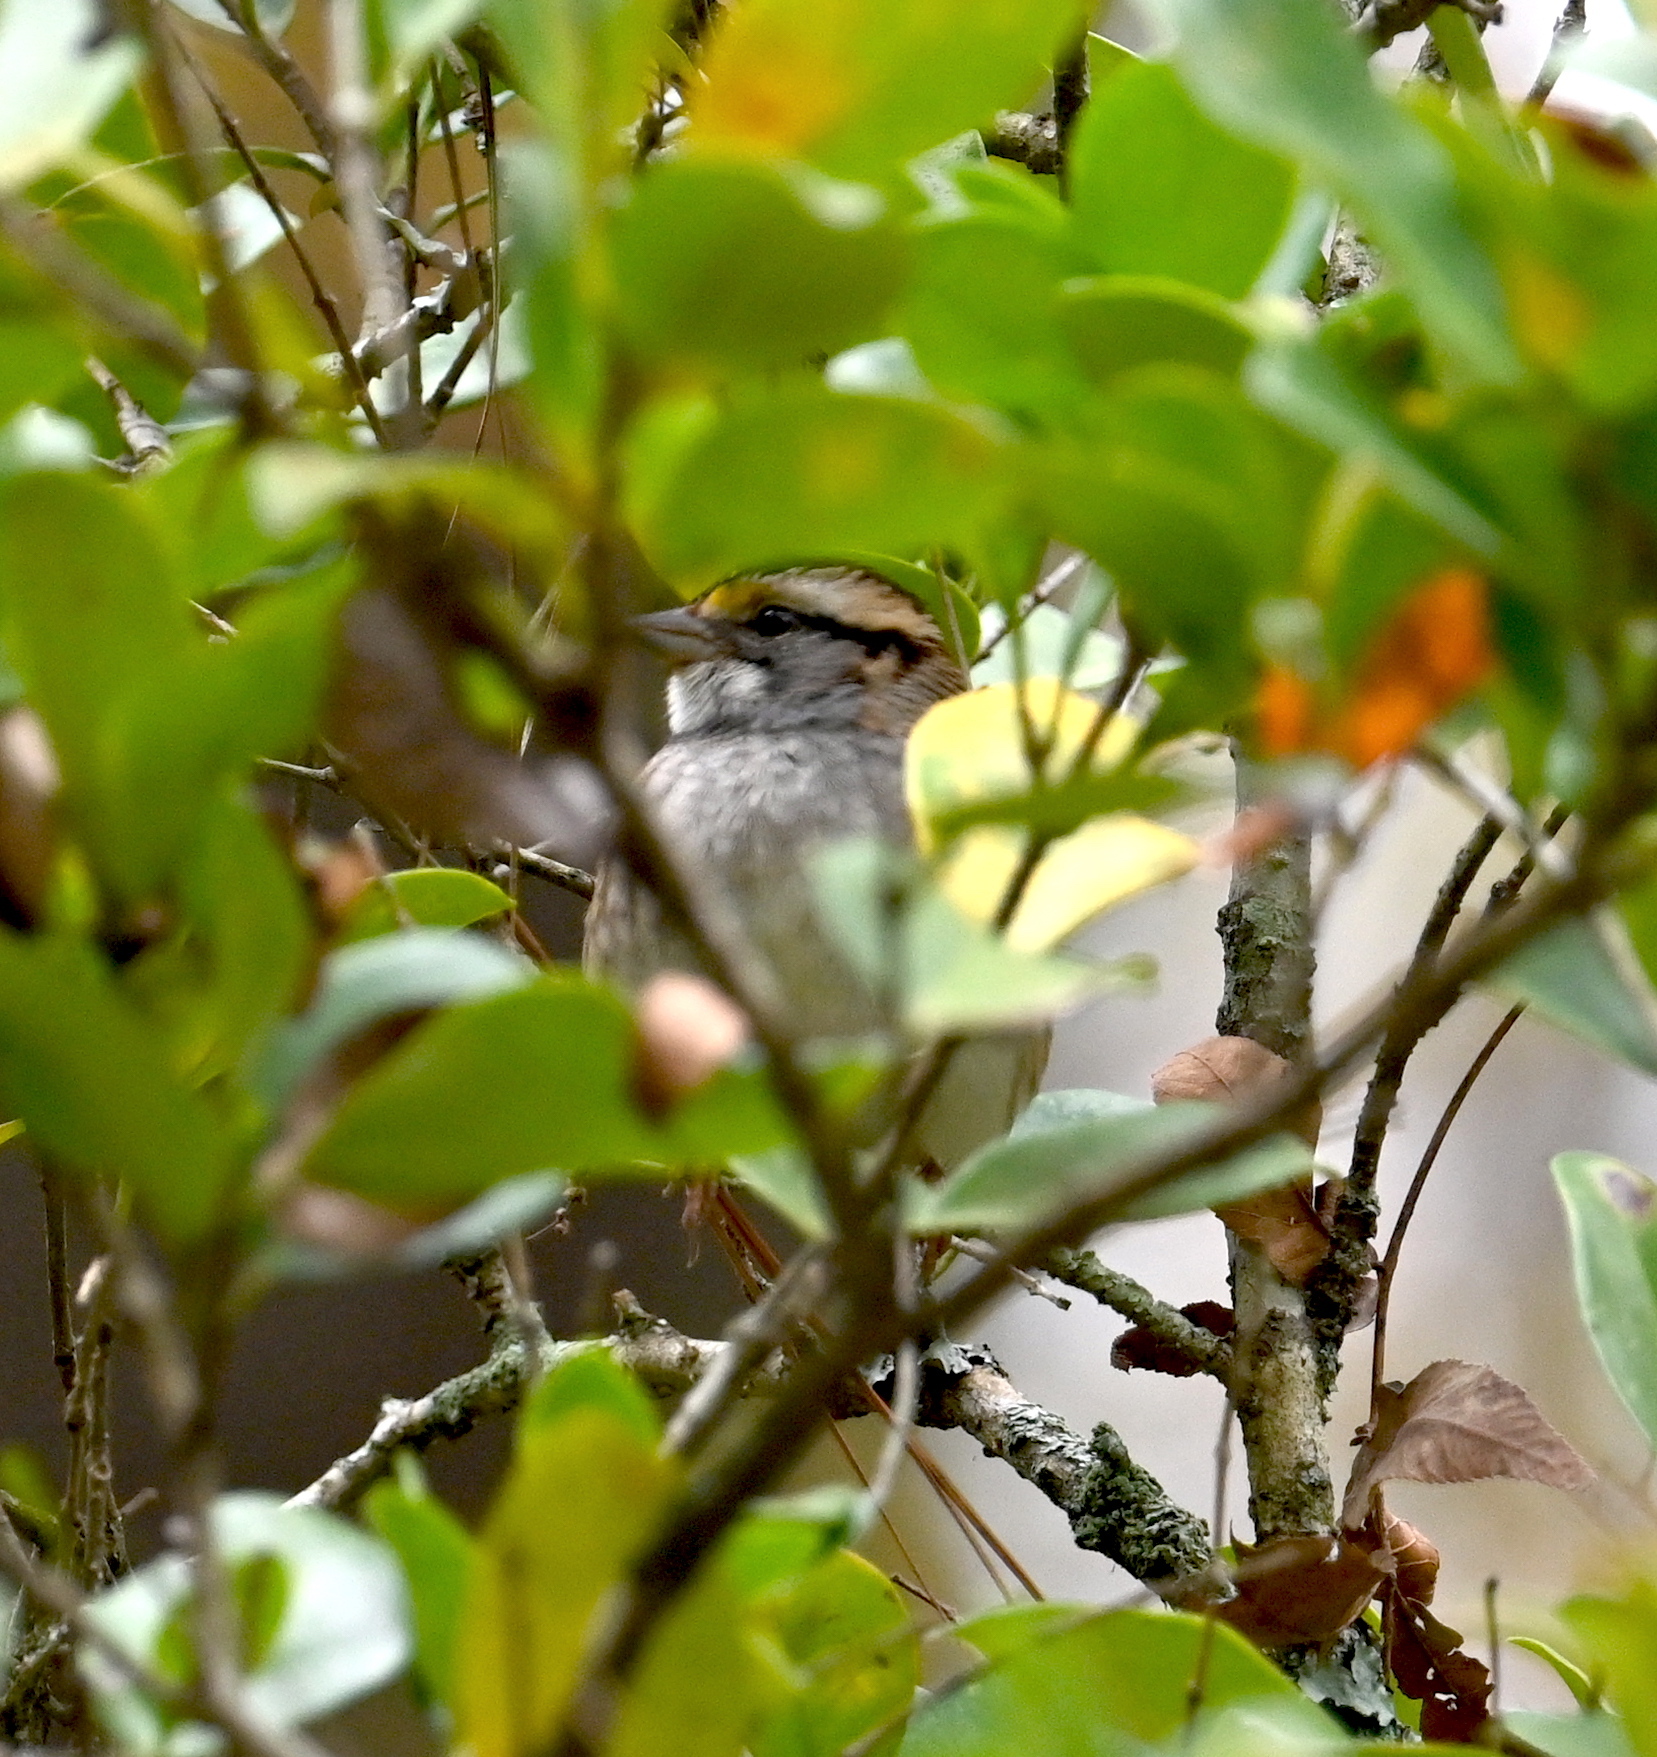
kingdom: Animalia
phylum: Chordata
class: Aves
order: Passeriformes
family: Passerellidae
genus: Zonotrichia
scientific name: Zonotrichia albicollis
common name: White-throated sparrow
